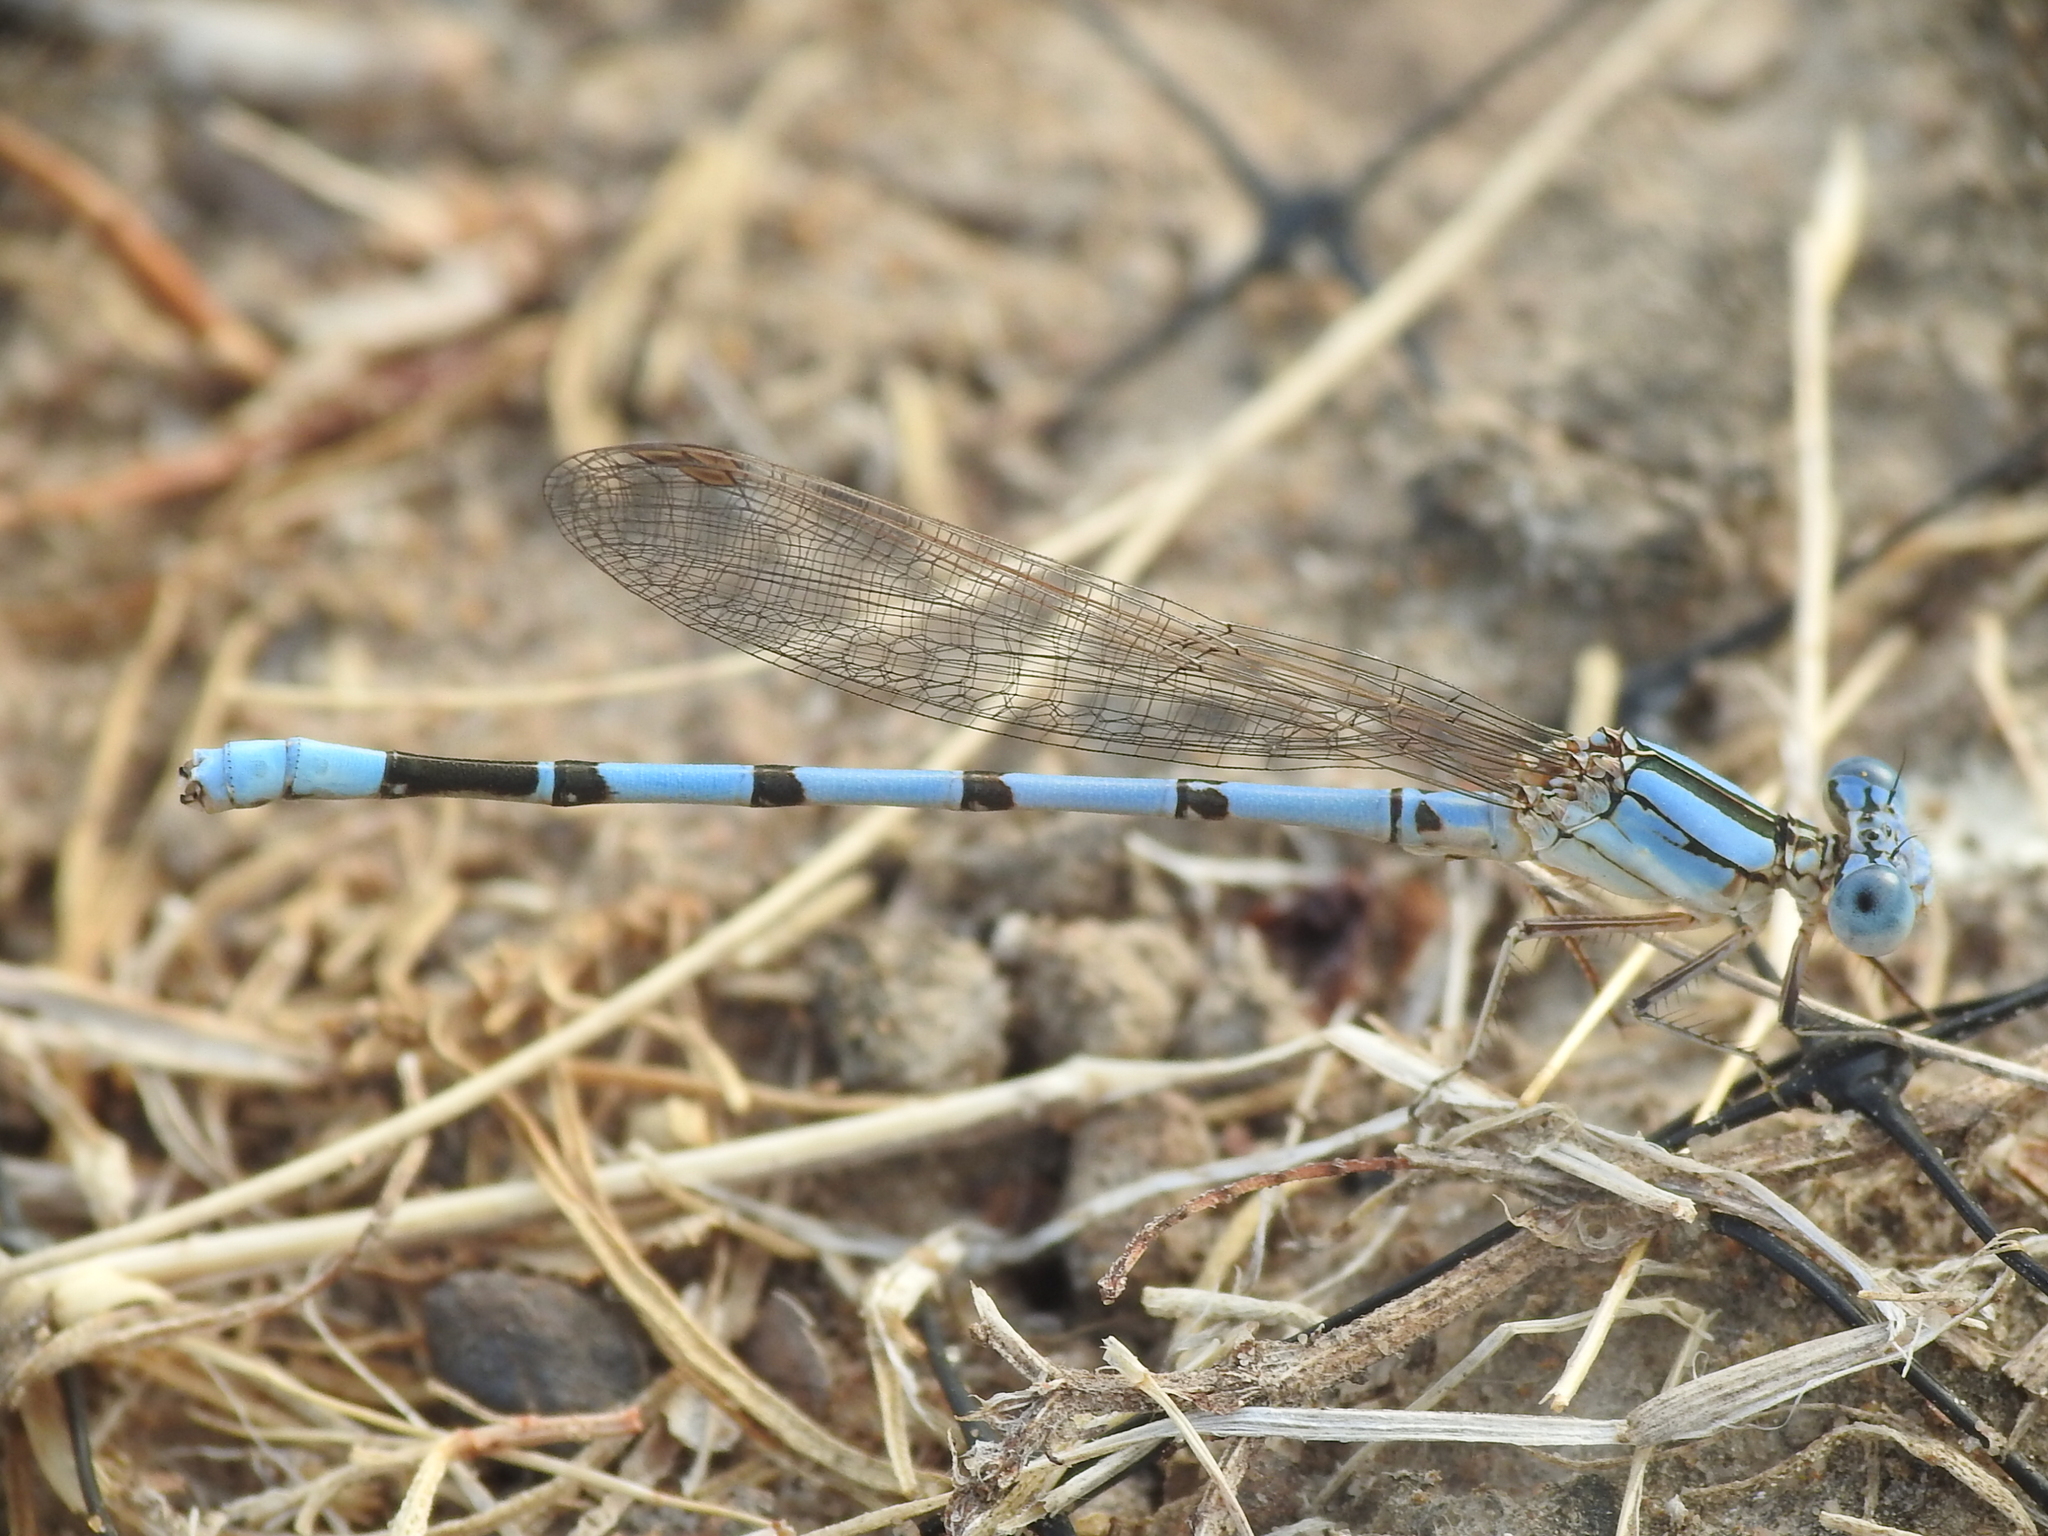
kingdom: Animalia
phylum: Arthropoda
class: Insecta
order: Odonata
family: Coenagrionidae
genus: Argia
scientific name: Argia nahuana
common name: Aztec dancer
